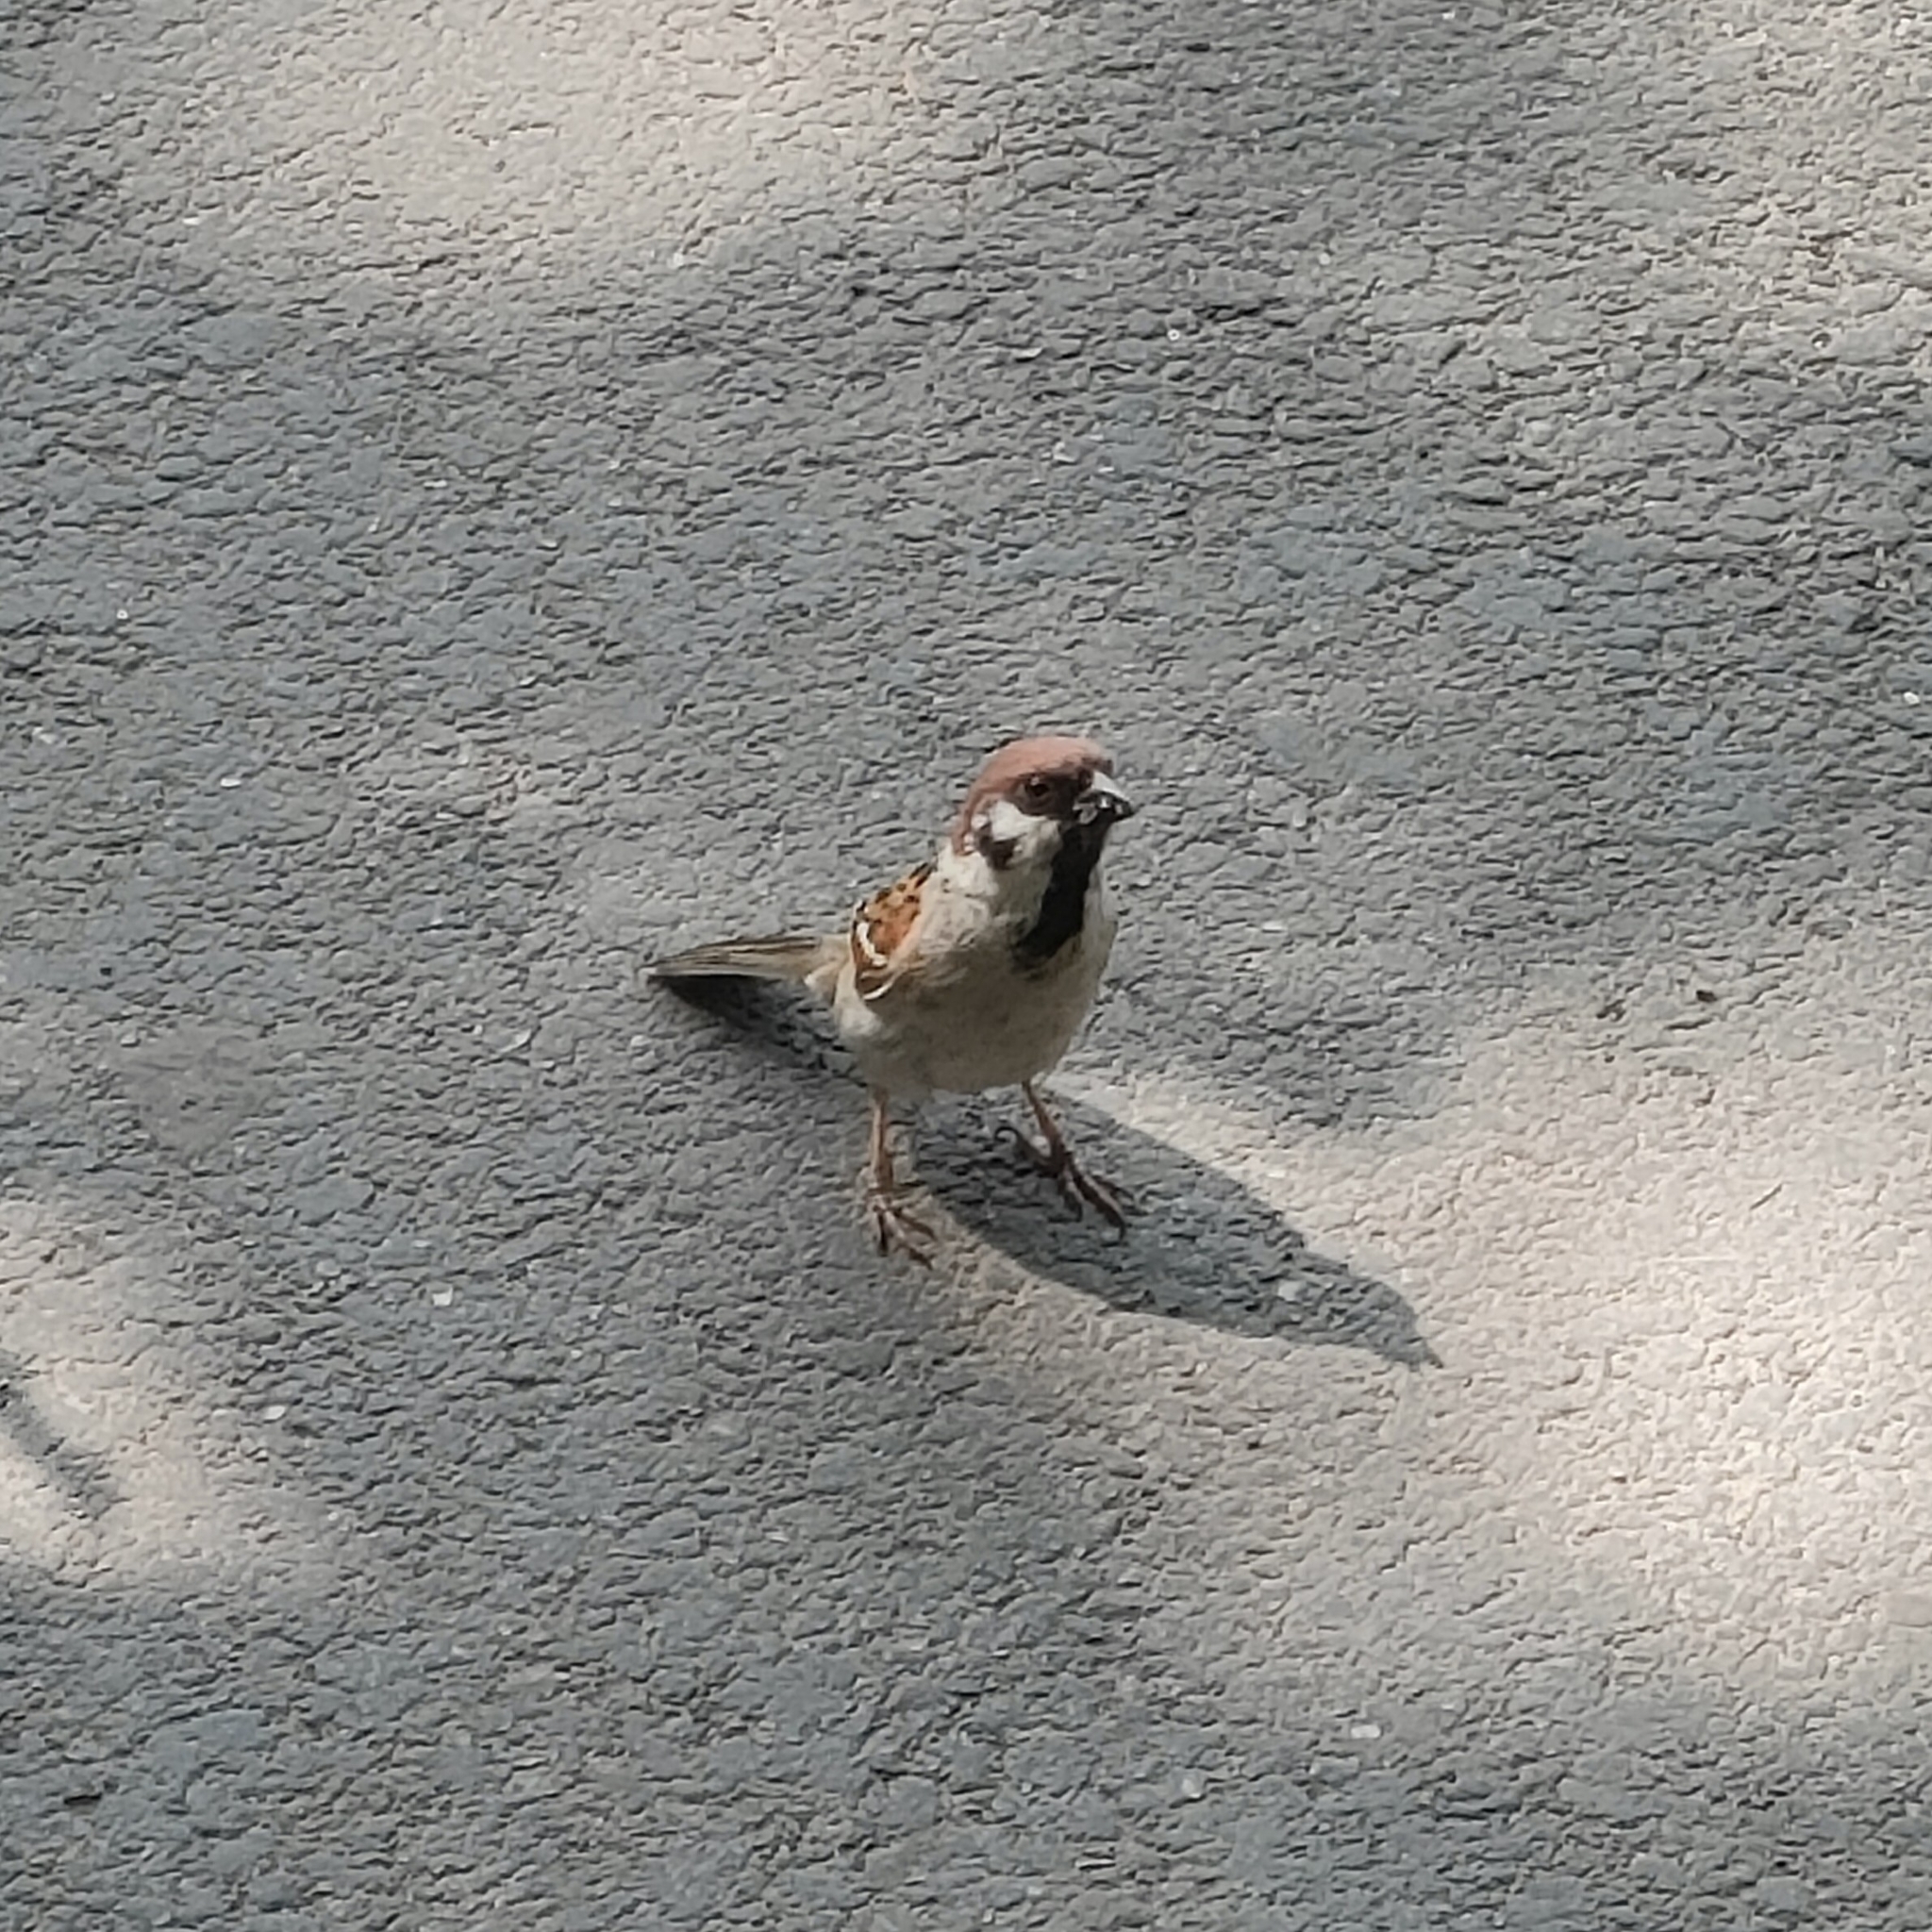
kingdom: Animalia
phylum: Chordata
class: Aves
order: Passeriformes
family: Passeridae
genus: Passer
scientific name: Passer montanus
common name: Eurasian tree sparrow
